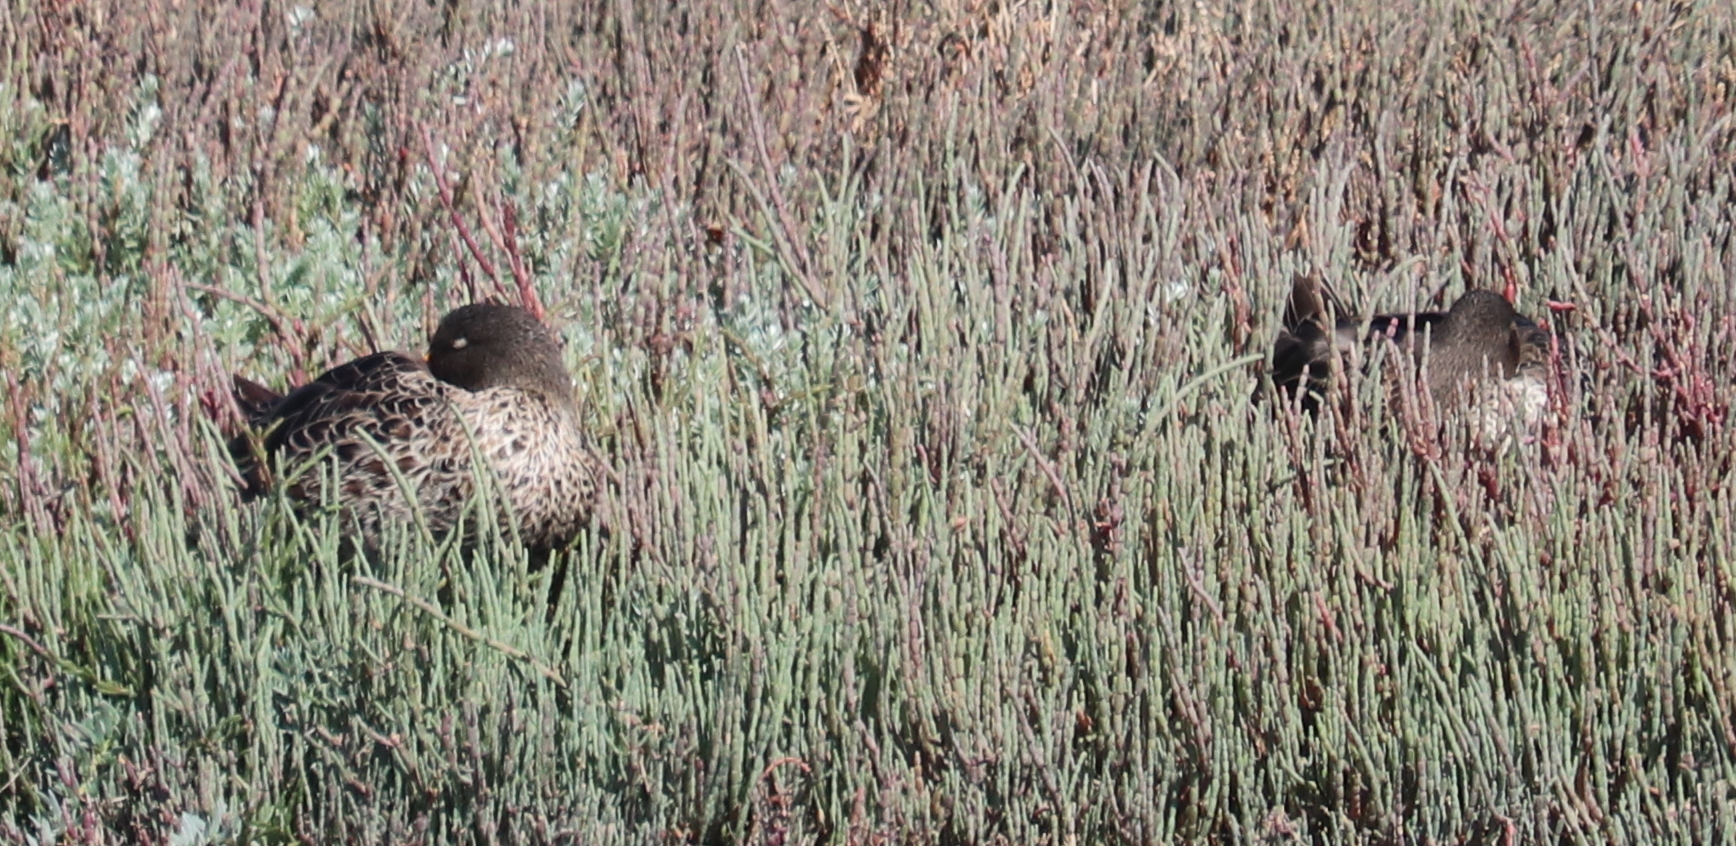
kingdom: Animalia
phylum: Chordata
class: Aves
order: Anseriformes
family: Anatidae
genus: Anas
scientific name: Anas undulata
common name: Yellow-billed duck
